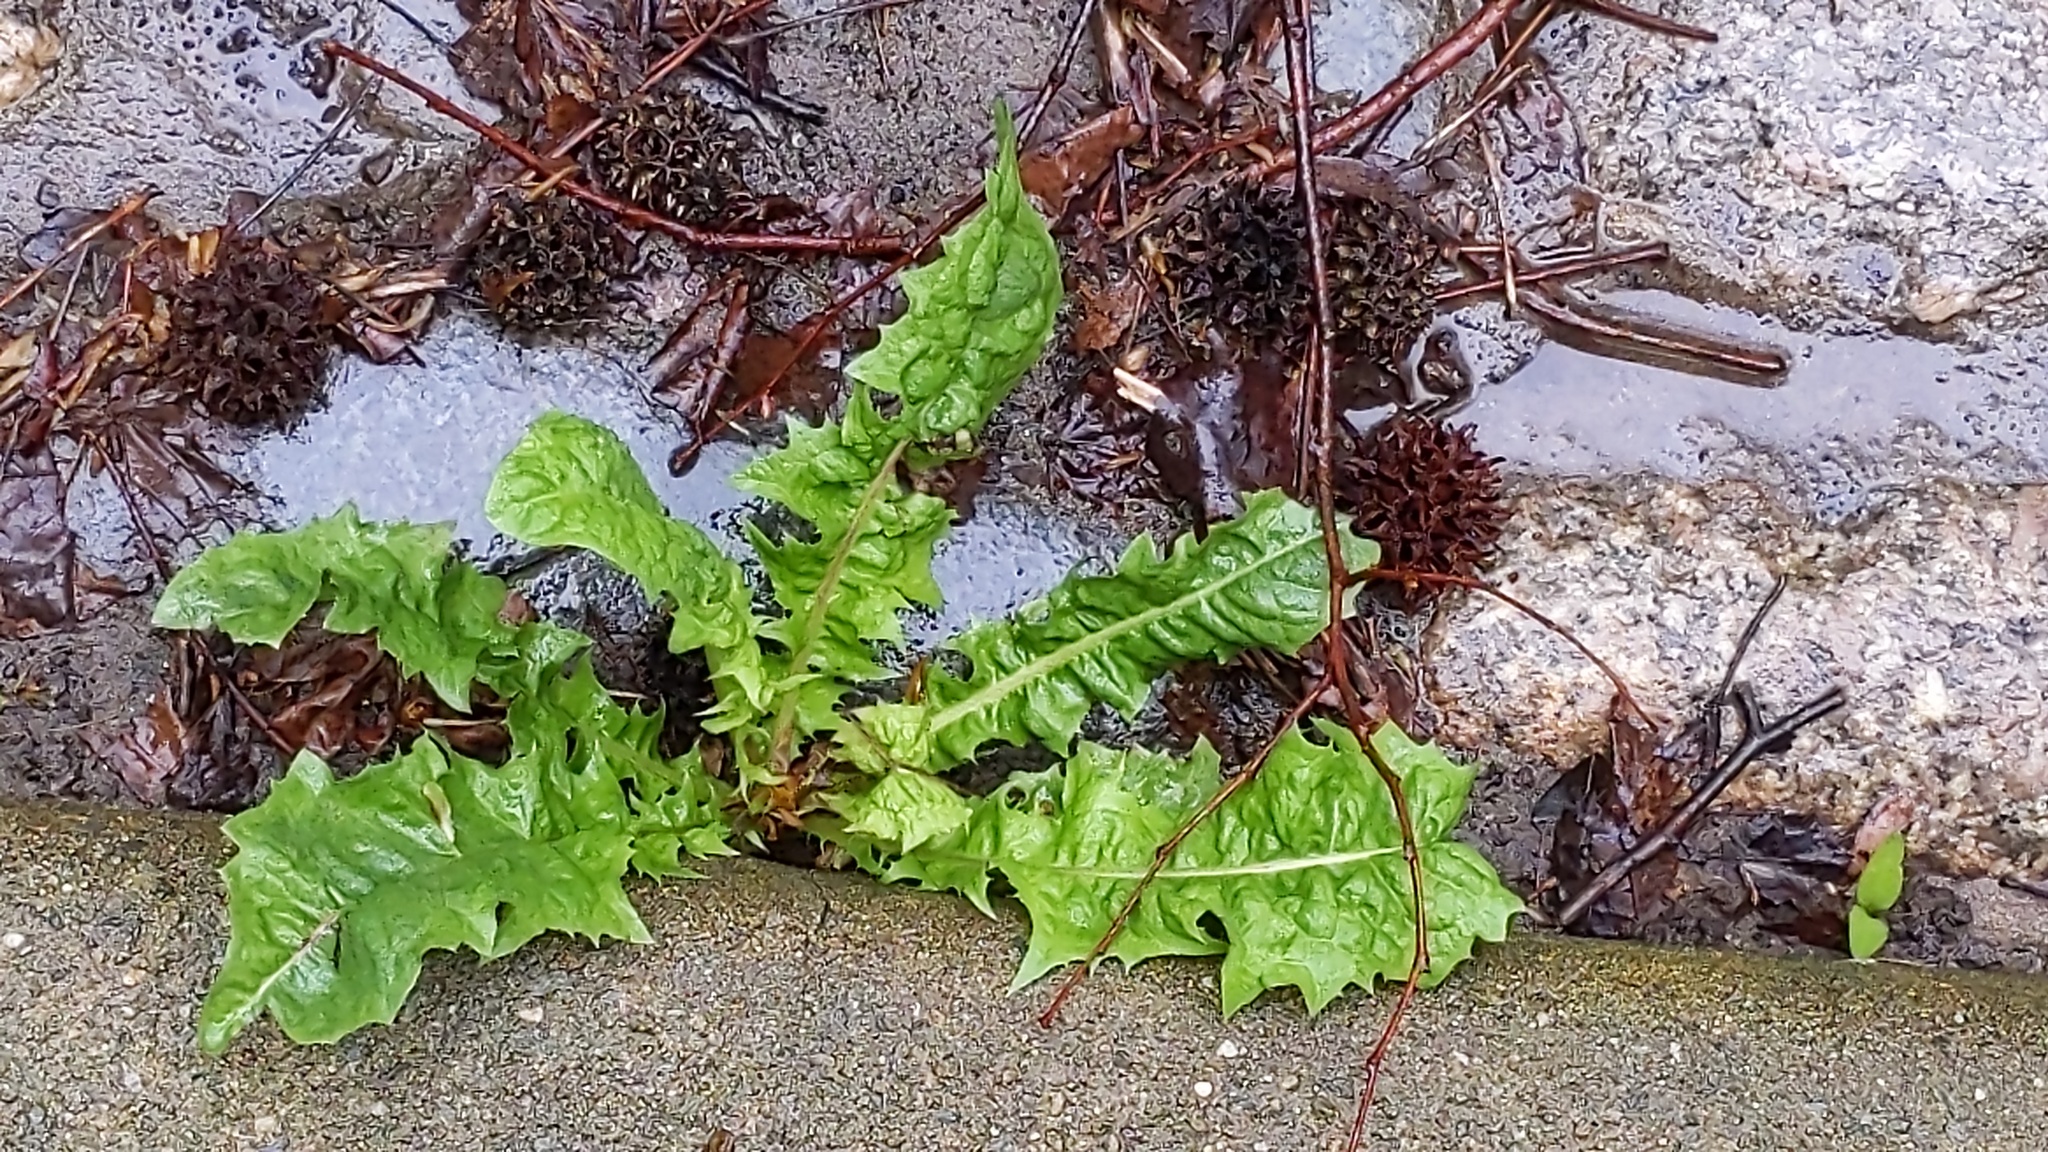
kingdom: Plantae
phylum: Tracheophyta
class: Magnoliopsida
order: Asterales
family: Asteraceae
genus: Taraxacum
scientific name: Taraxacum officinale
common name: Common dandelion
